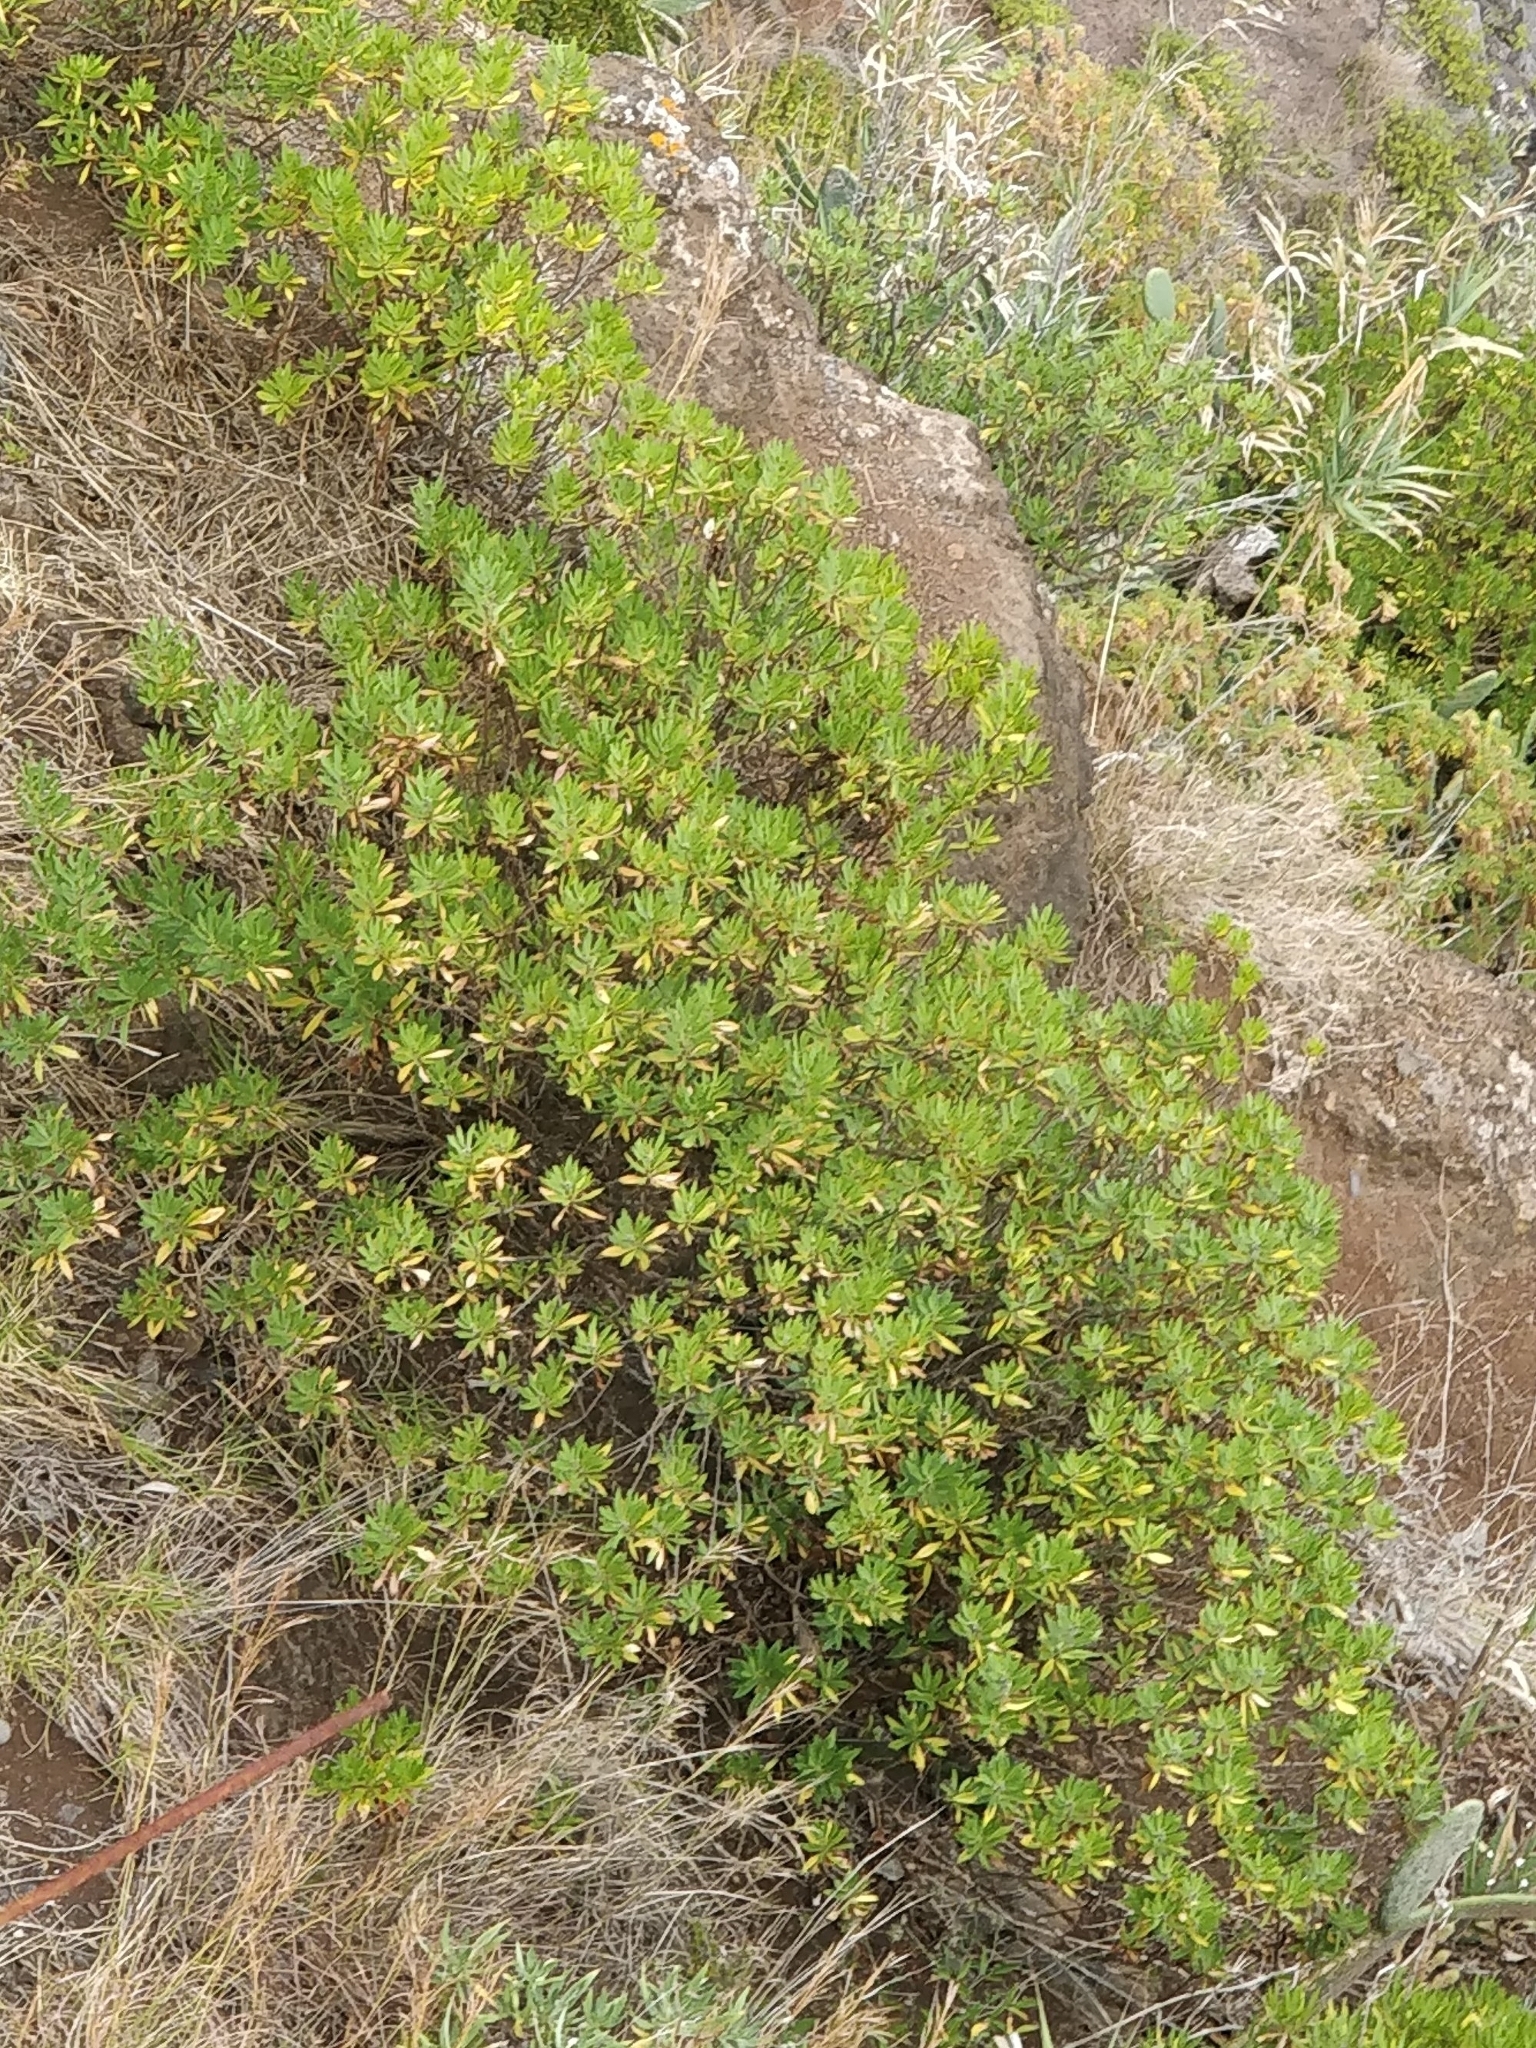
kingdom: Plantae
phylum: Tracheophyta
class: Magnoliopsida
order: Lamiales
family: Plantaginaceae
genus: Globularia
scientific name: Globularia salicina
